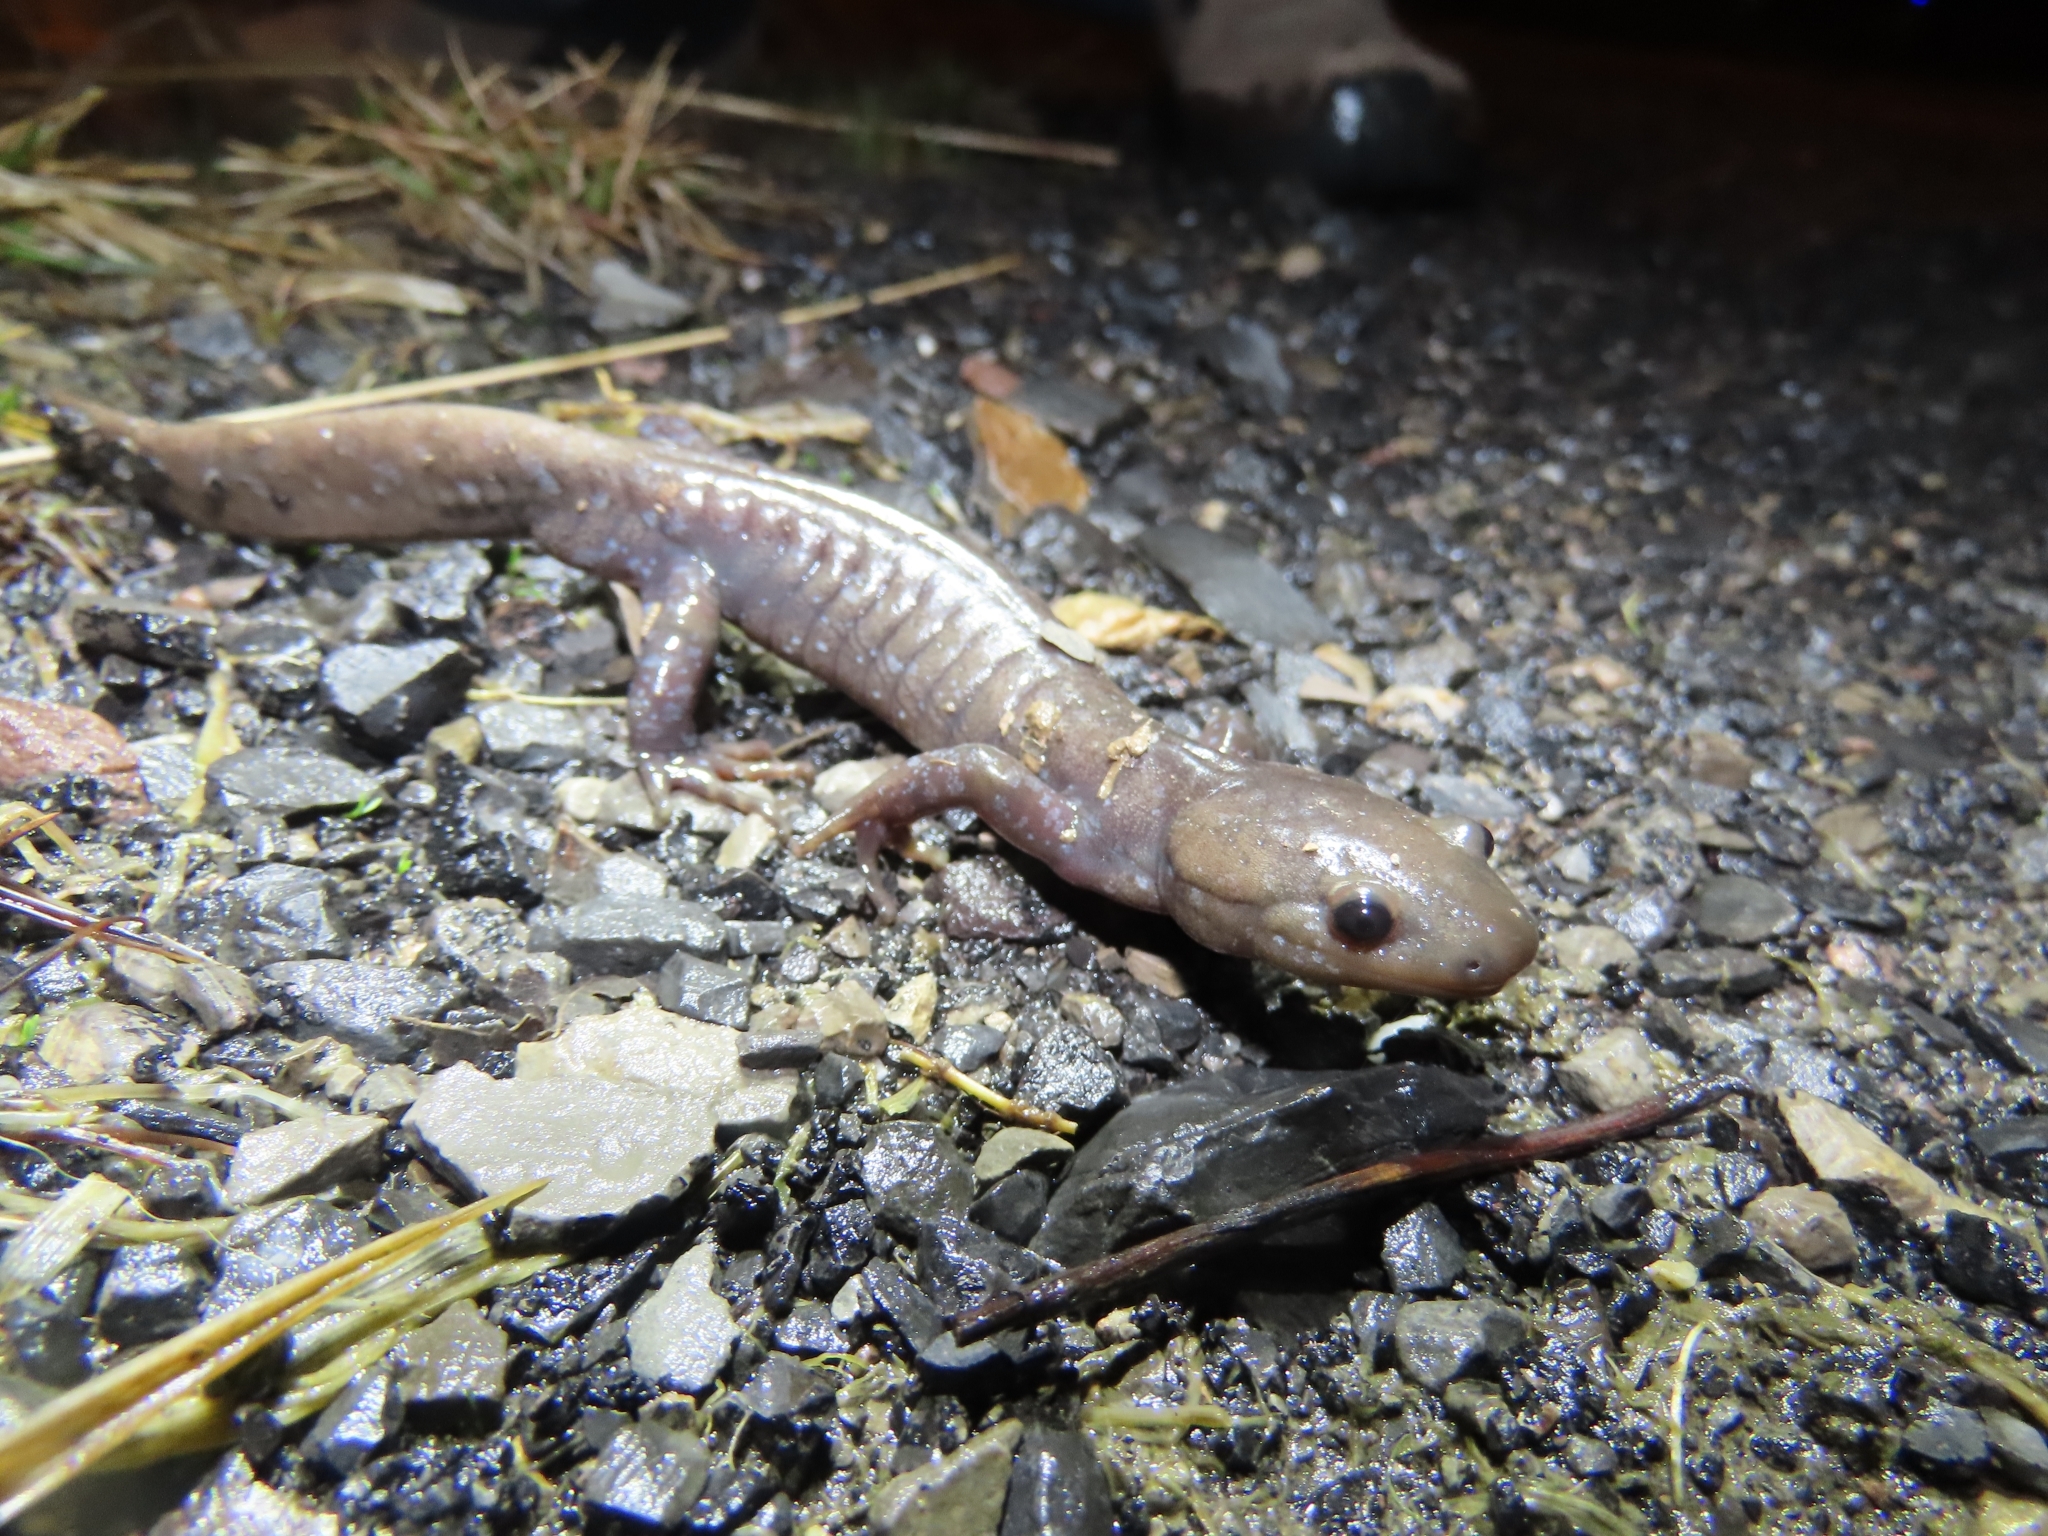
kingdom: Animalia
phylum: Chordata
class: Amphibia
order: Caudata
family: Ambystomatidae
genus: Ambystoma
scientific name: Ambystoma jeffersonianum
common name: Jefferson salamander
